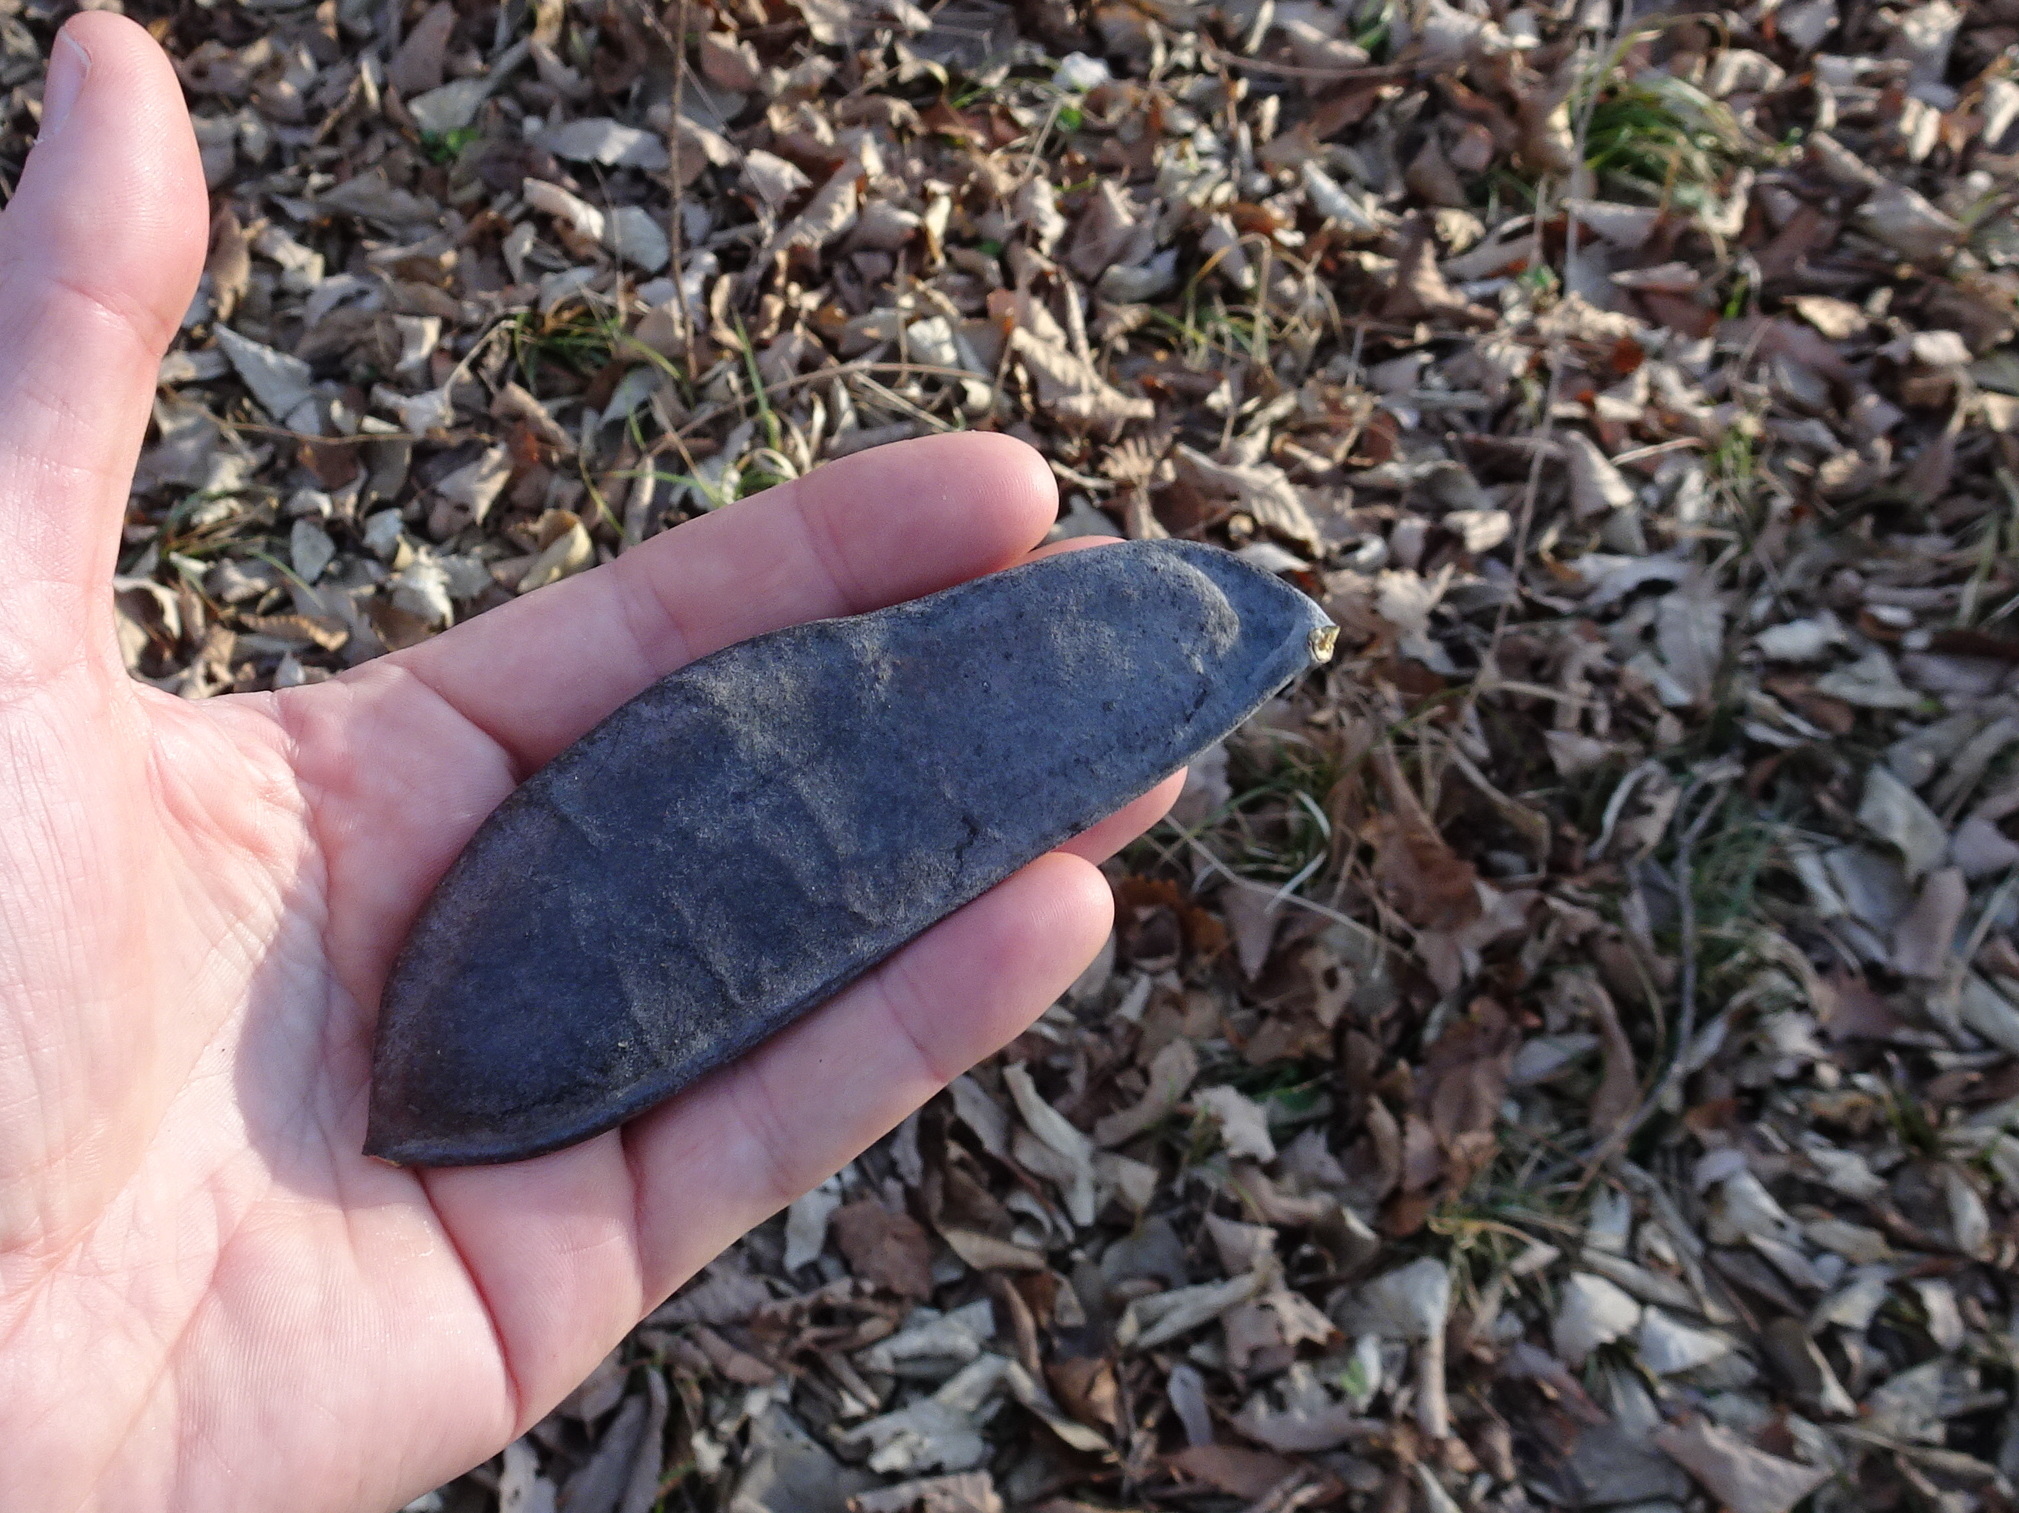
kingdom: Plantae
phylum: Tracheophyta
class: Magnoliopsida
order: Fabales
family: Fabaceae
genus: Gymnocladus
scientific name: Gymnocladus dioicus
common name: Kentucky coffee-tree
